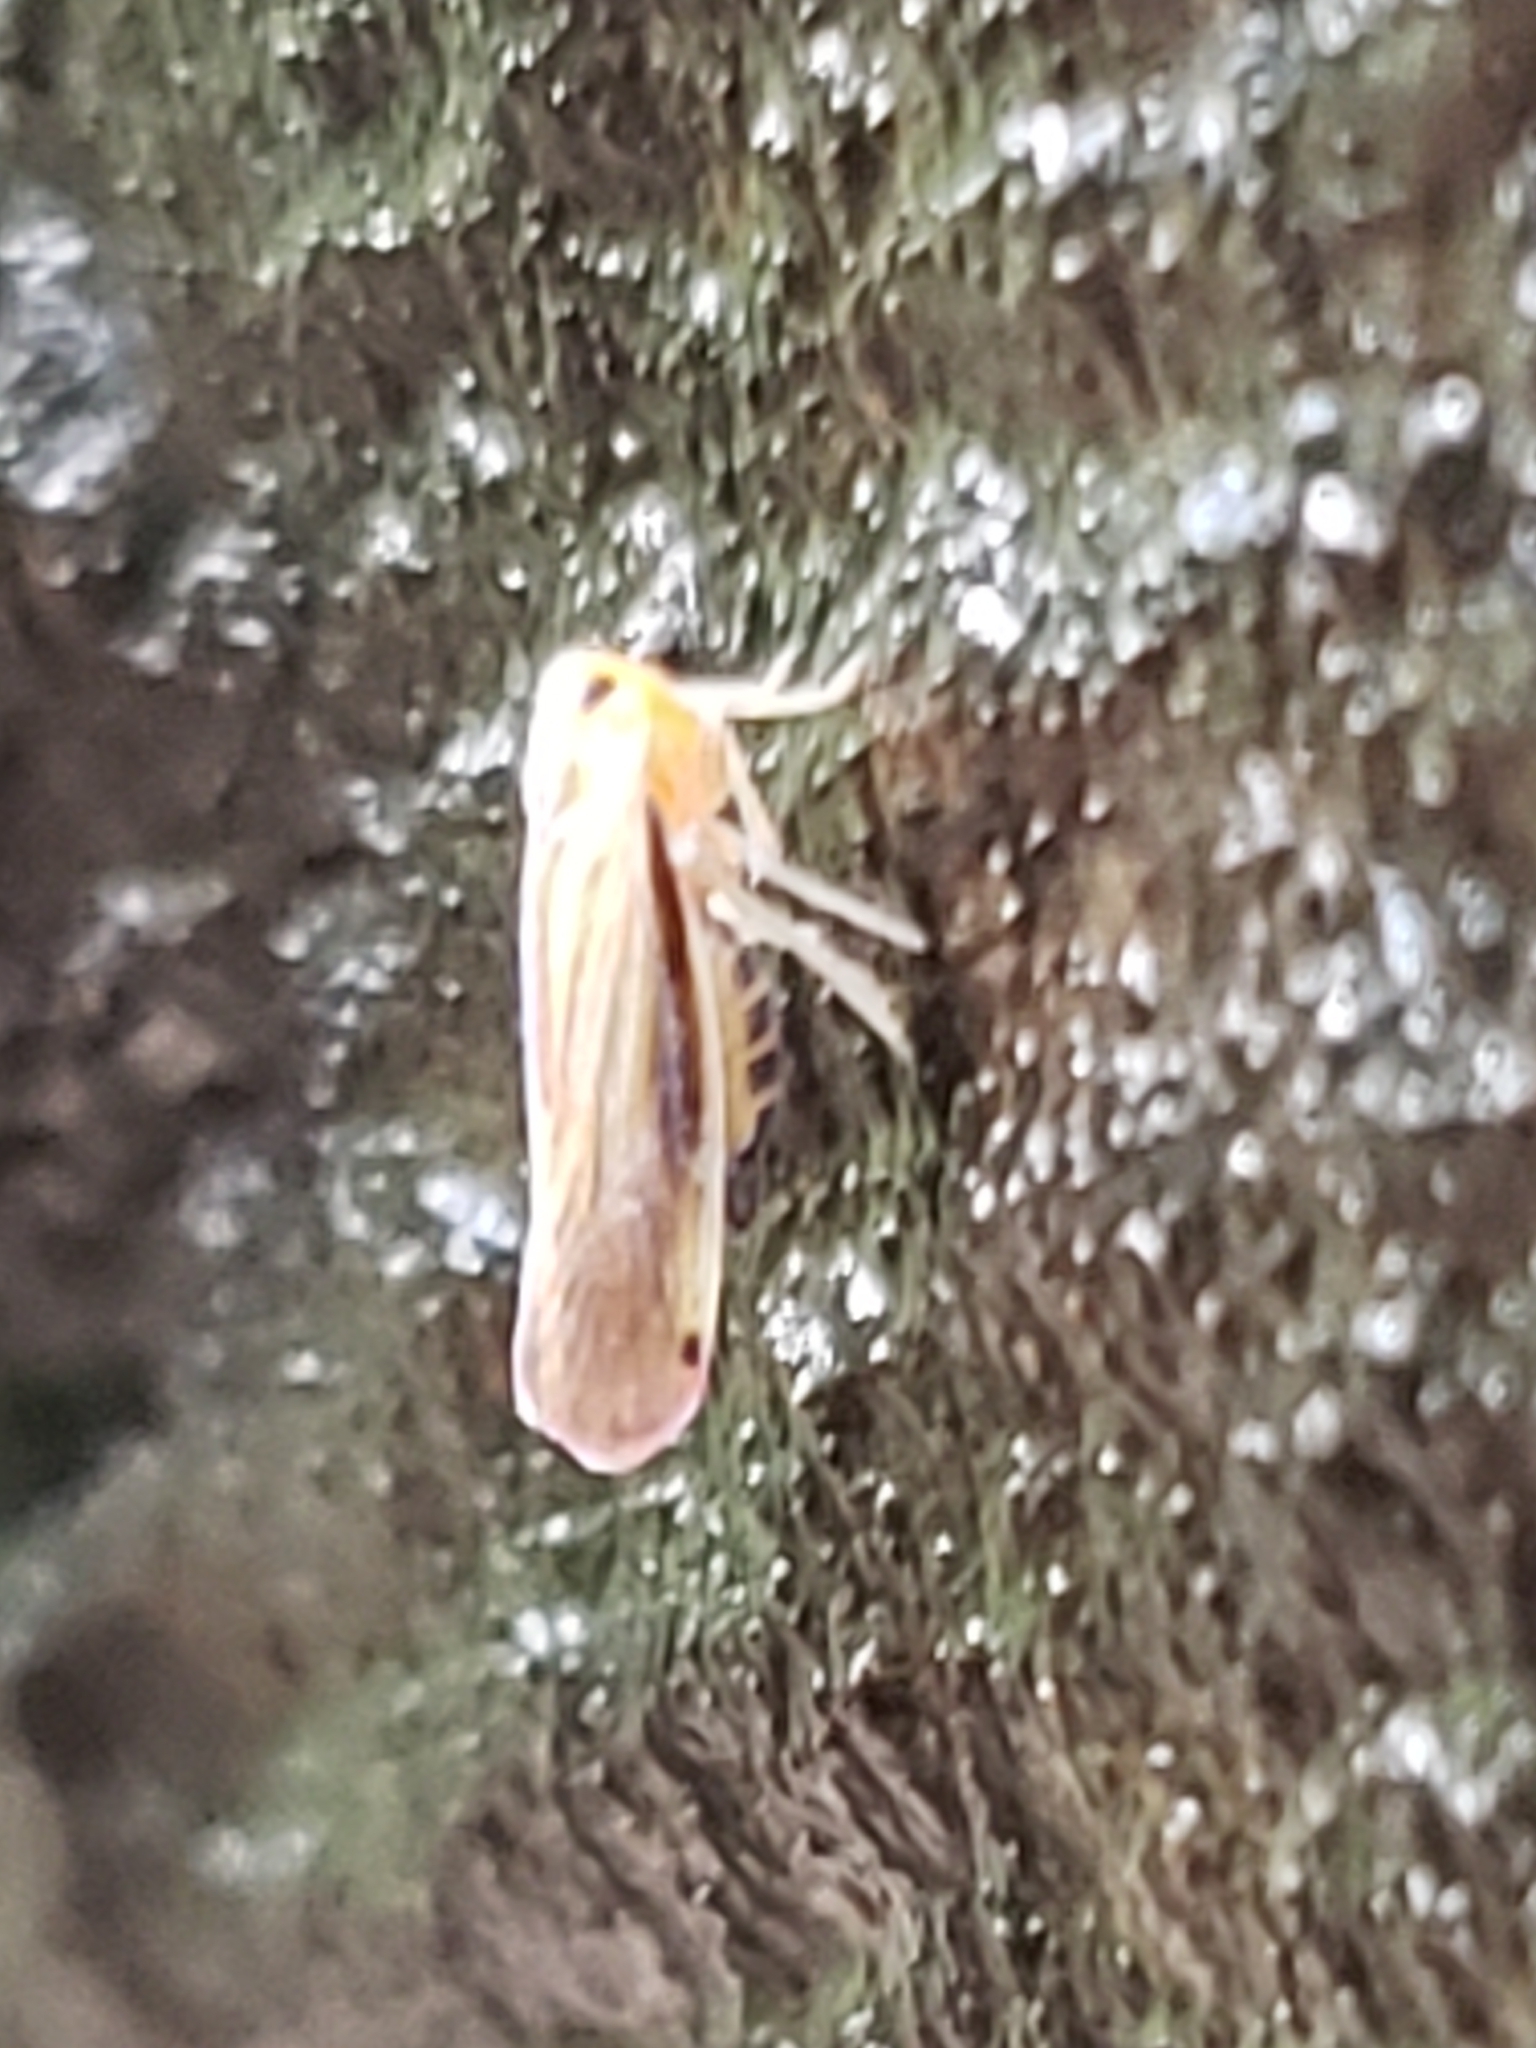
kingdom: Animalia
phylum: Arthropoda
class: Insecta
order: Hemiptera
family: Derbidae
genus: Omolicna
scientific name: Omolicna uhleri
